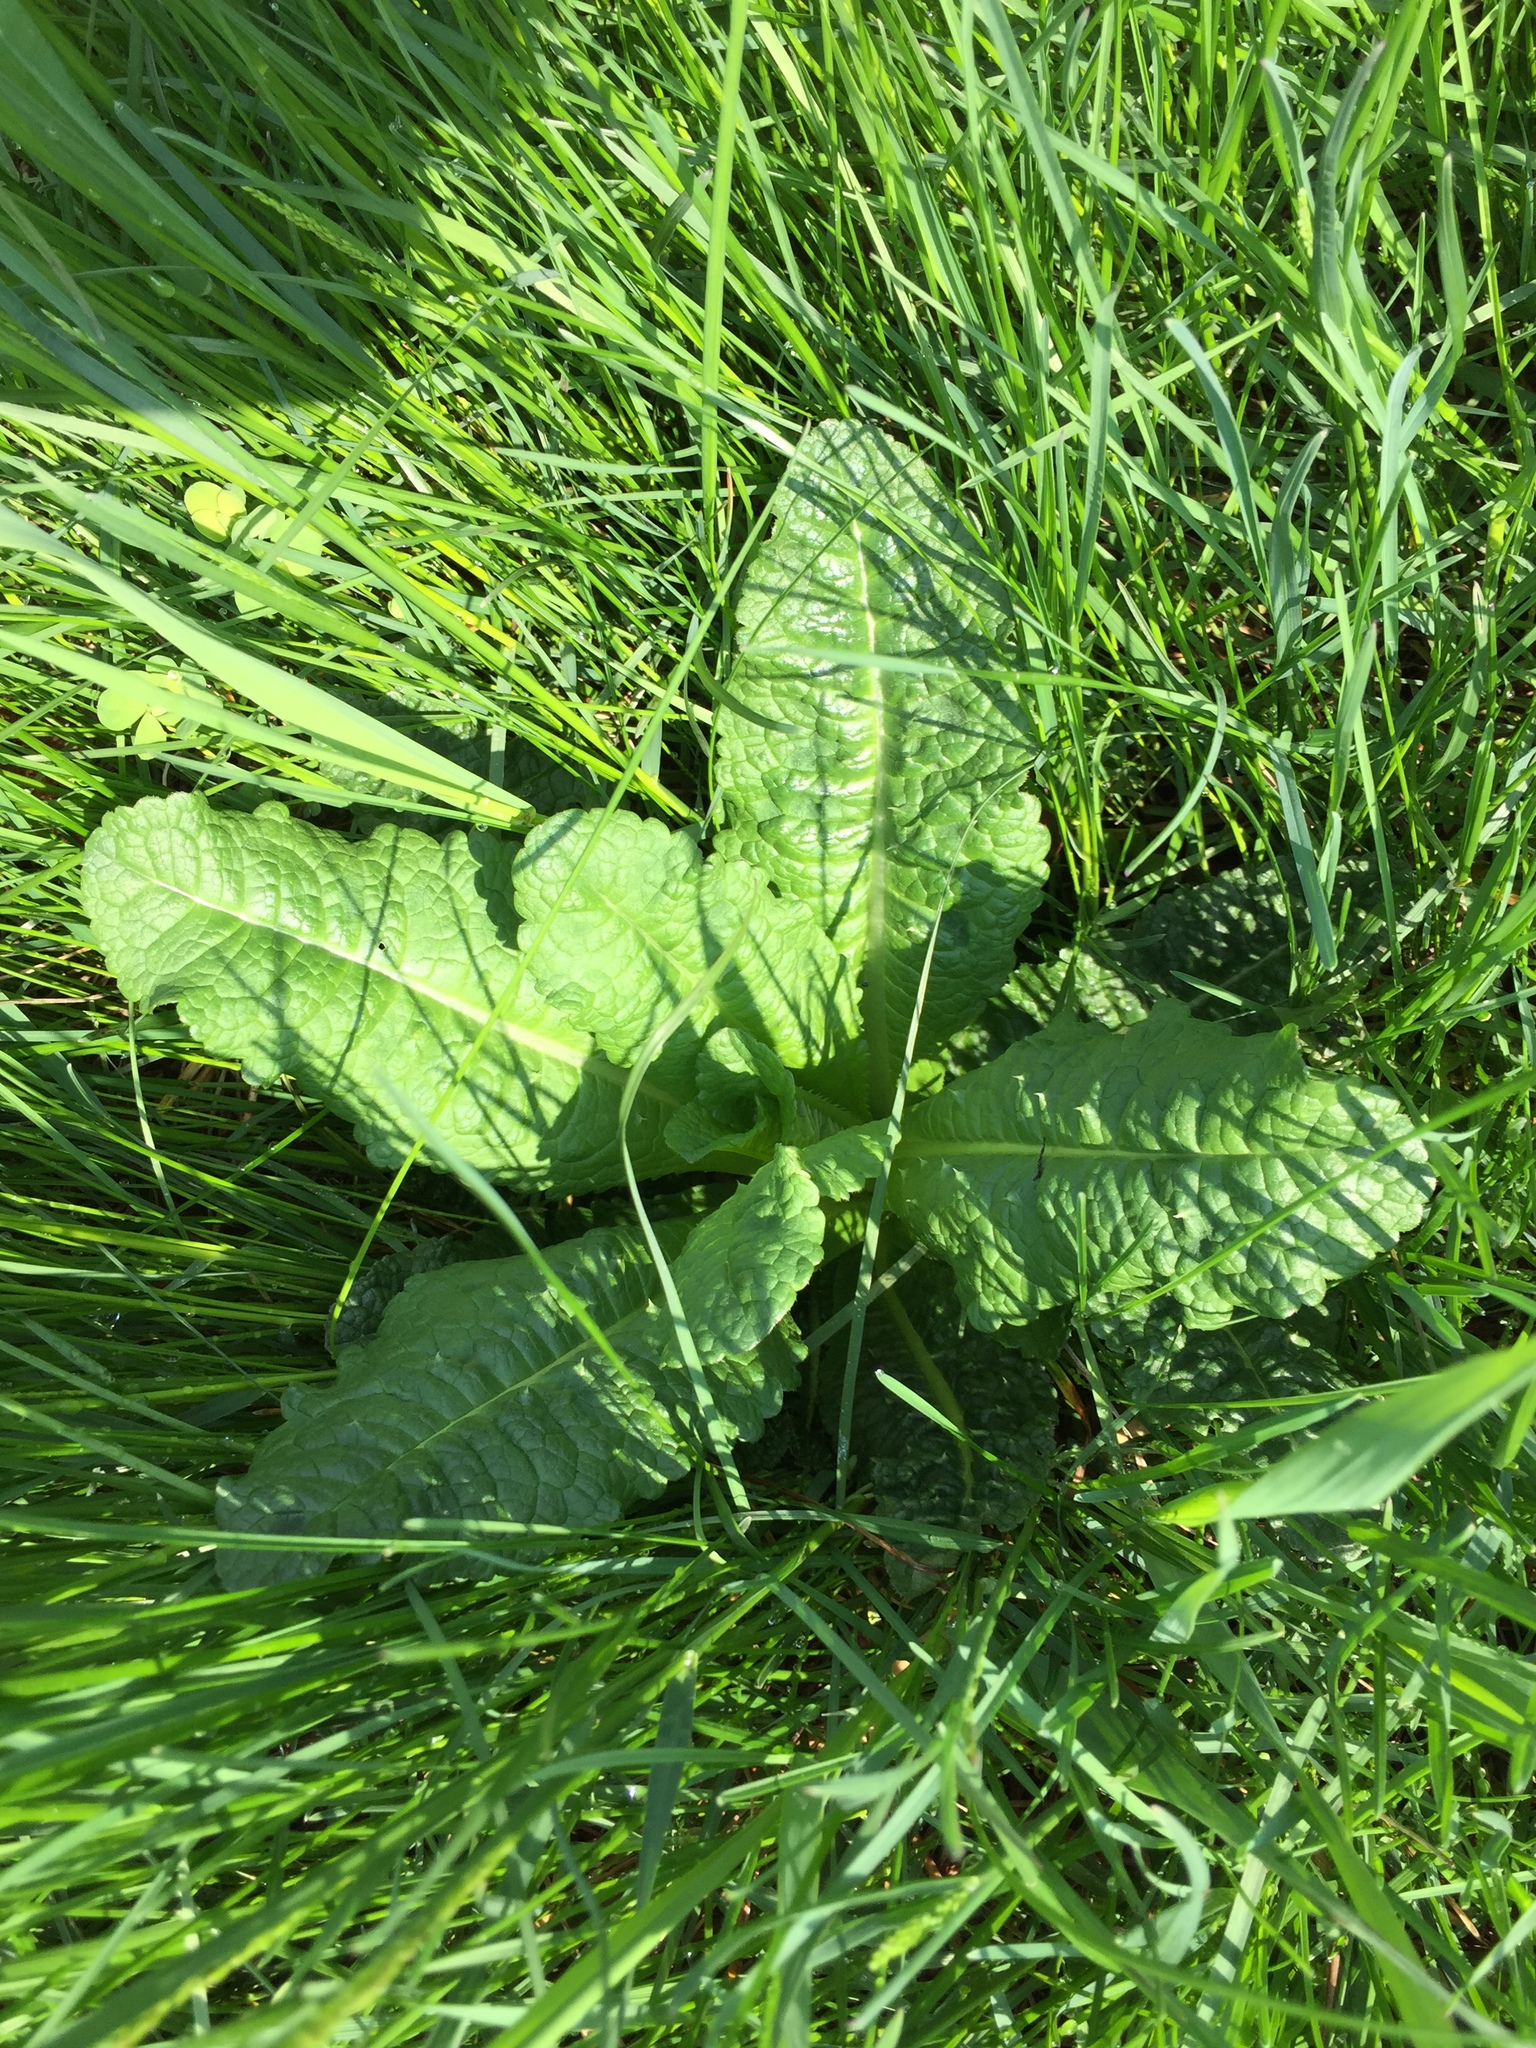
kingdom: Plantae
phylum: Tracheophyta
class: Magnoliopsida
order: Dipsacales
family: Caprifoliaceae
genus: Dipsacus
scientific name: Dipsacus fullonum
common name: Teasel
